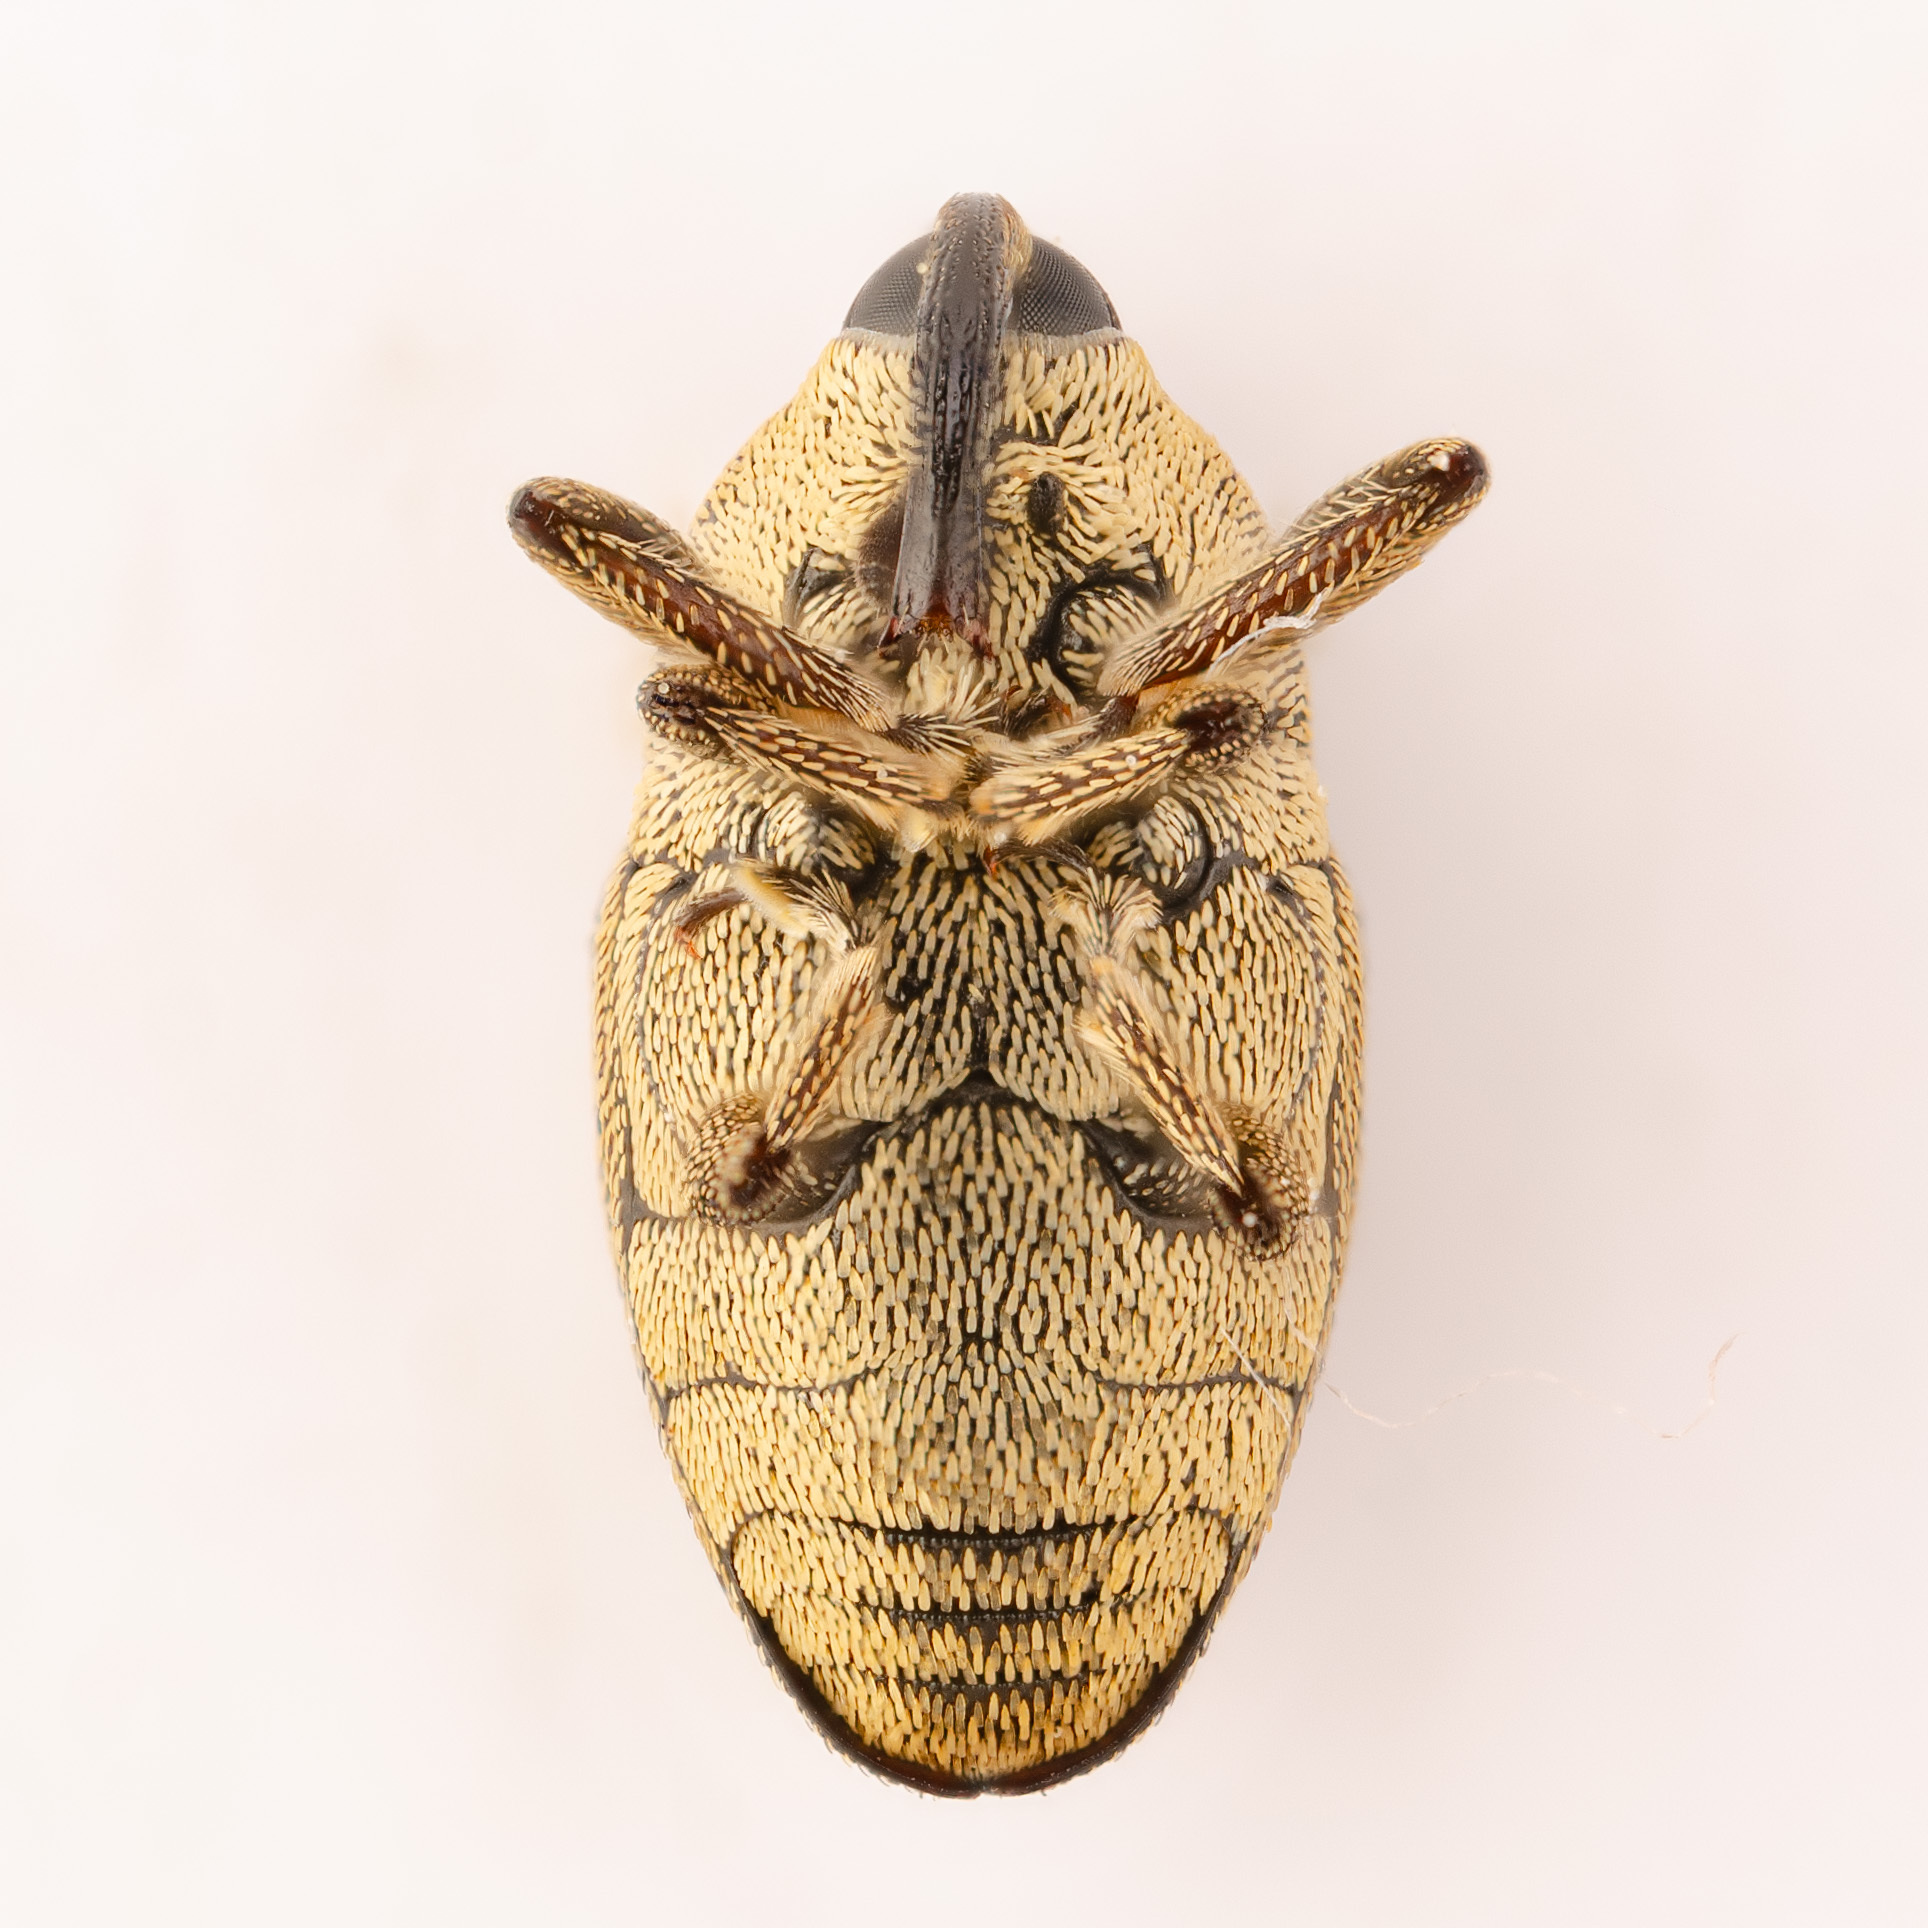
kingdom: Animalia
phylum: Arthropoda
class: Insecta
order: Coleoptera
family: Curculionidae
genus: Linogeraeus
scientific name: Linogeraeus neglectus
